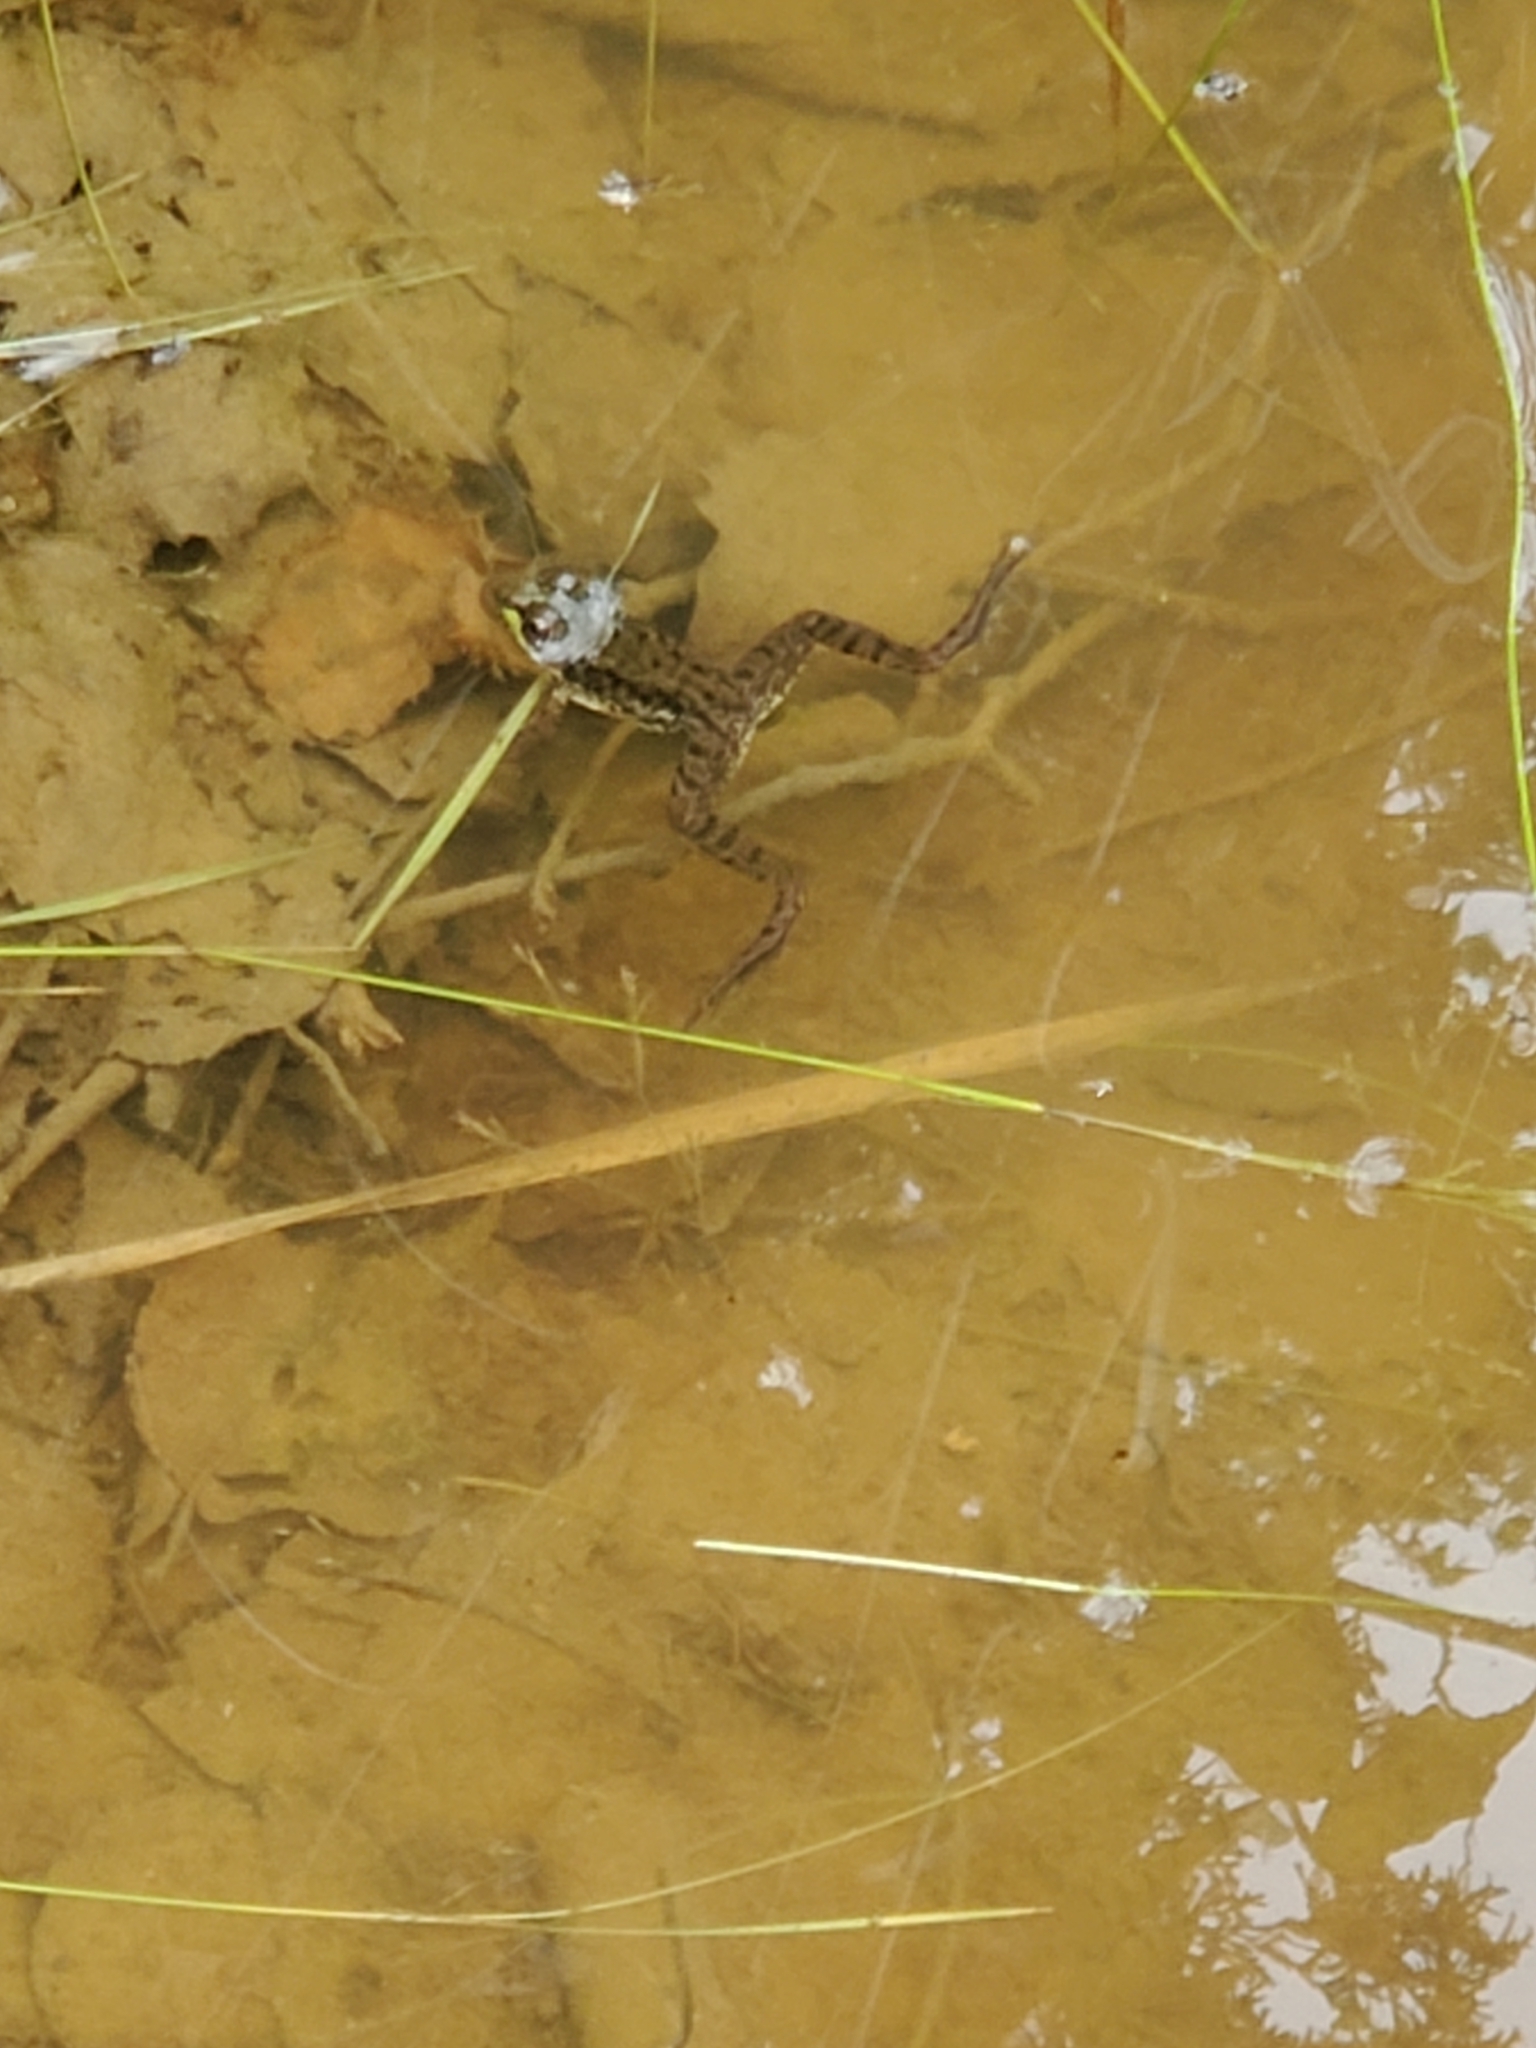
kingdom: Animalia
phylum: Chordata
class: Amphibia
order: Anura
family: Ranidae
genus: Lithobates
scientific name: Lithobates clamitans
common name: Green frog
